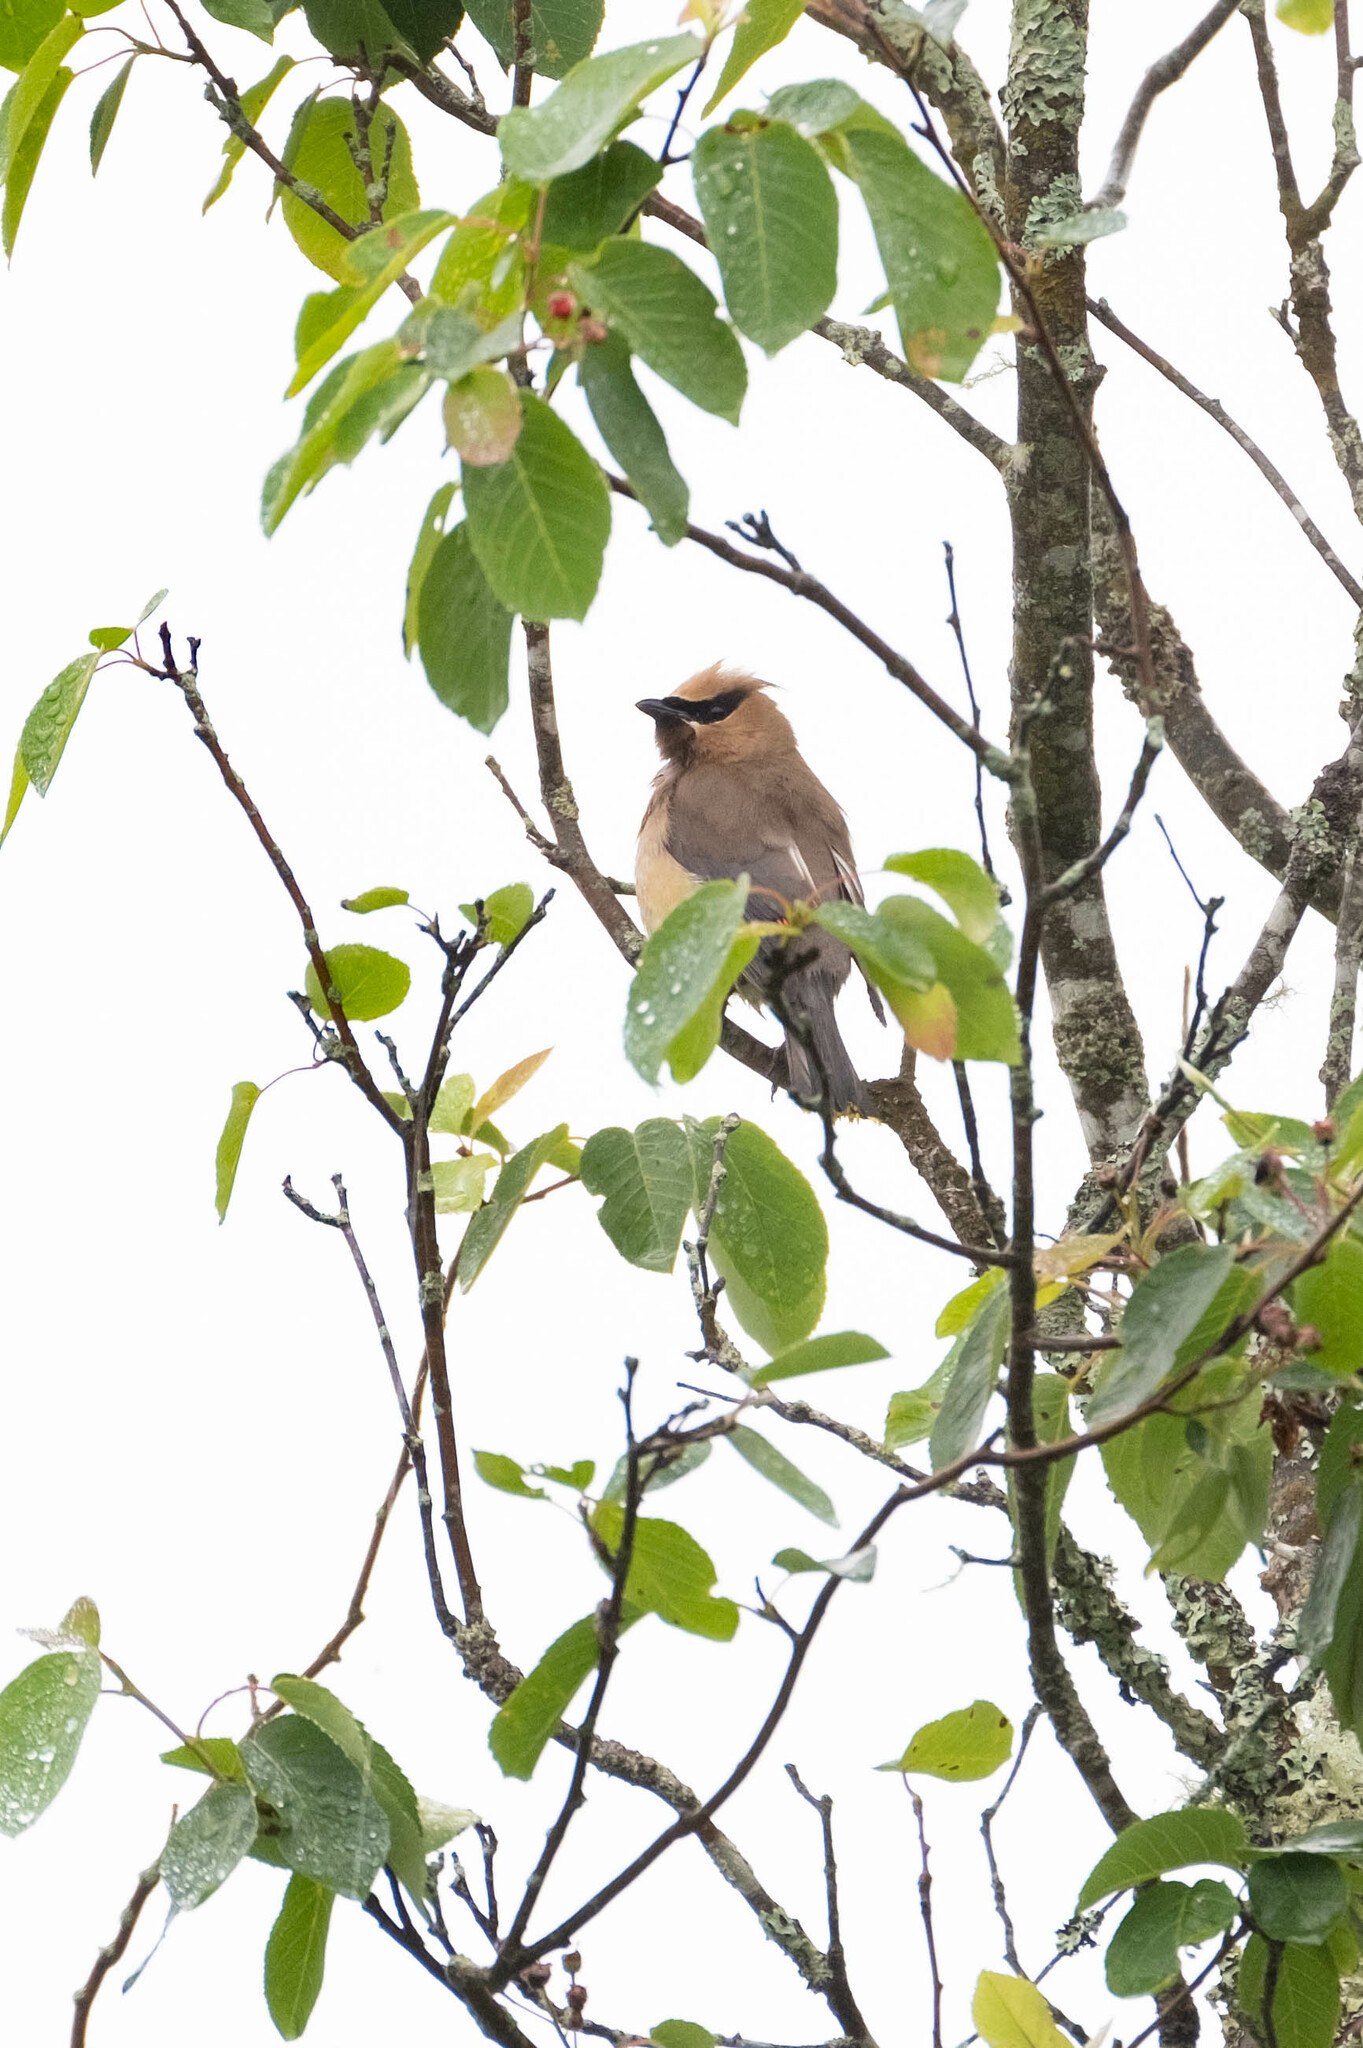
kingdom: Animalia
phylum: Chordata
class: Aves
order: Passeriformes
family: Bombycillidae
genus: Bombycilla
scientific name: Bombycilla cedrorum
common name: Cedar waxwing
